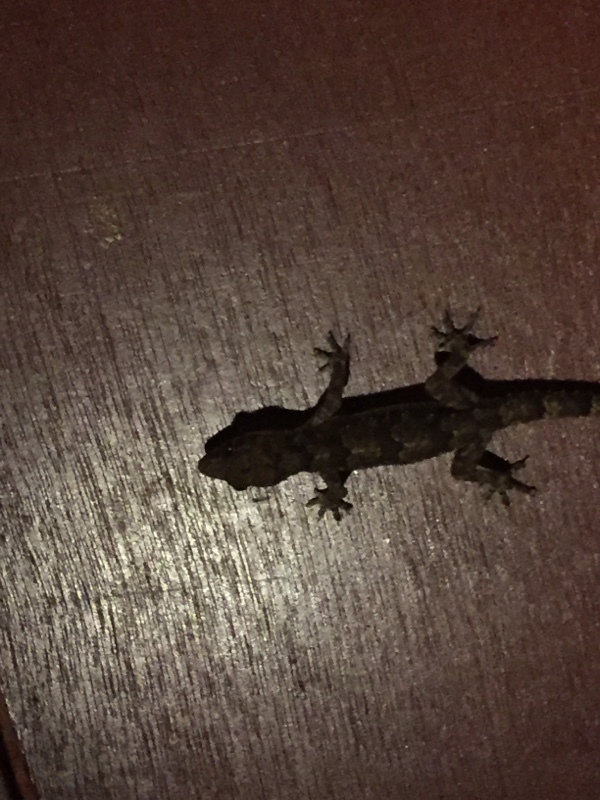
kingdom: Animalia
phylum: Chordata
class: Squamata
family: Gekkonidae
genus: Hemidactylus
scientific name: Hemidactylus mabouia
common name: House gecko
